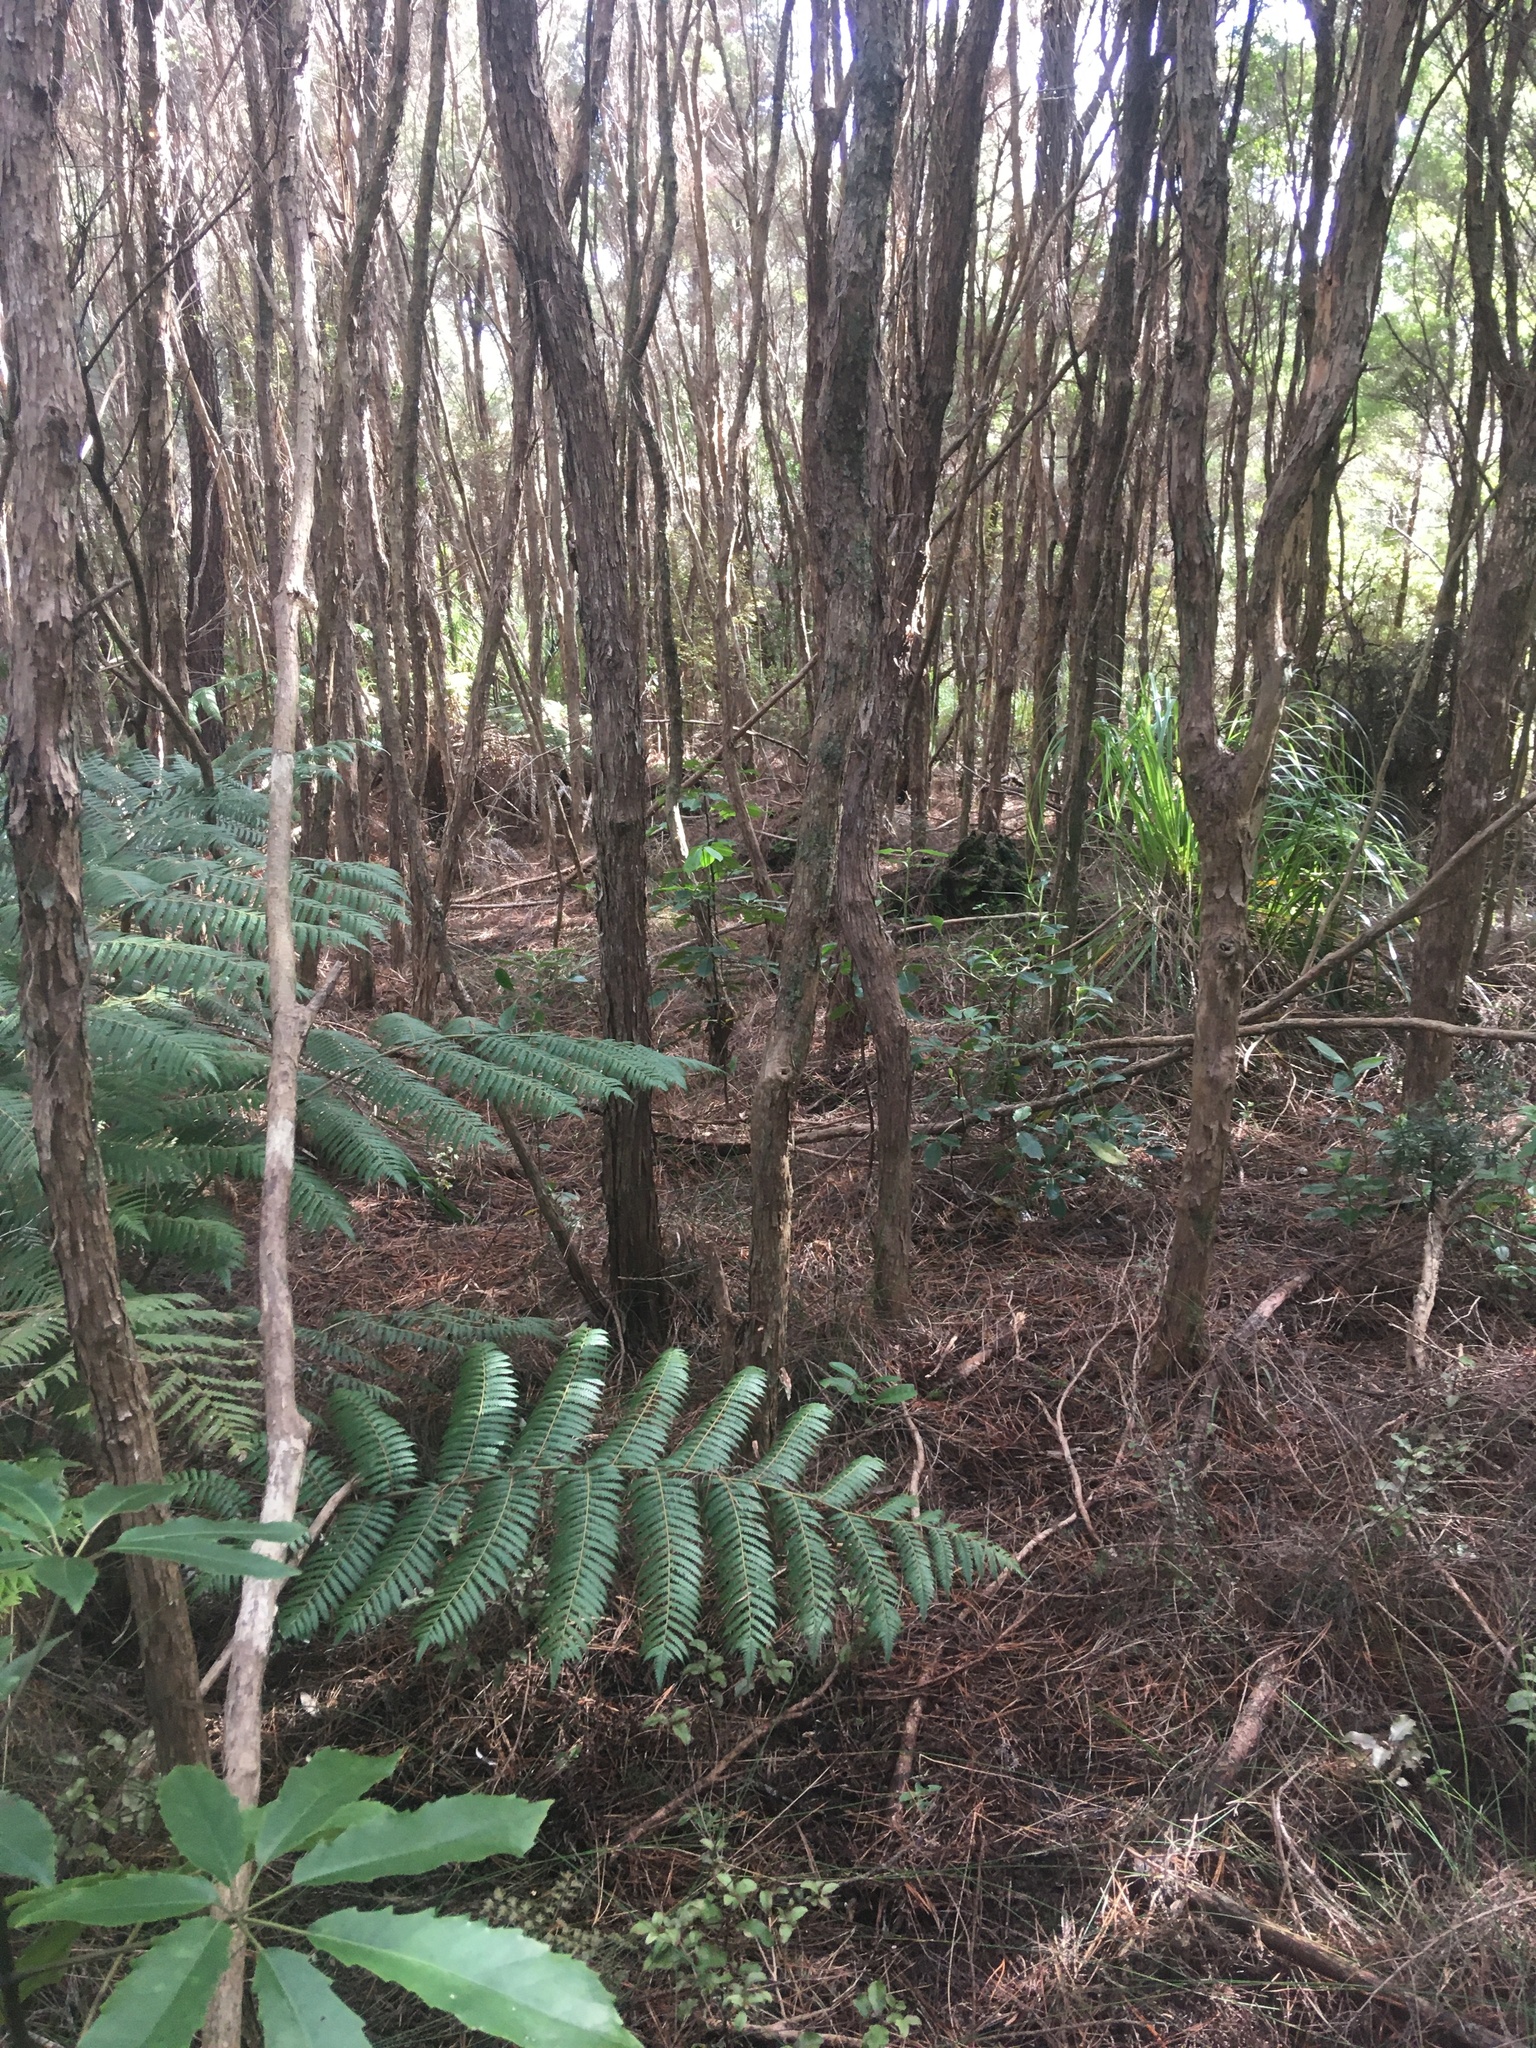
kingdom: Plantae
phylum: Tracheophyta
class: Pinopsida
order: Pinales
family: Phyllocladaceae
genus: Phyllocladus
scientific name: Phyllocladus trichomanoides
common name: Celery pine
